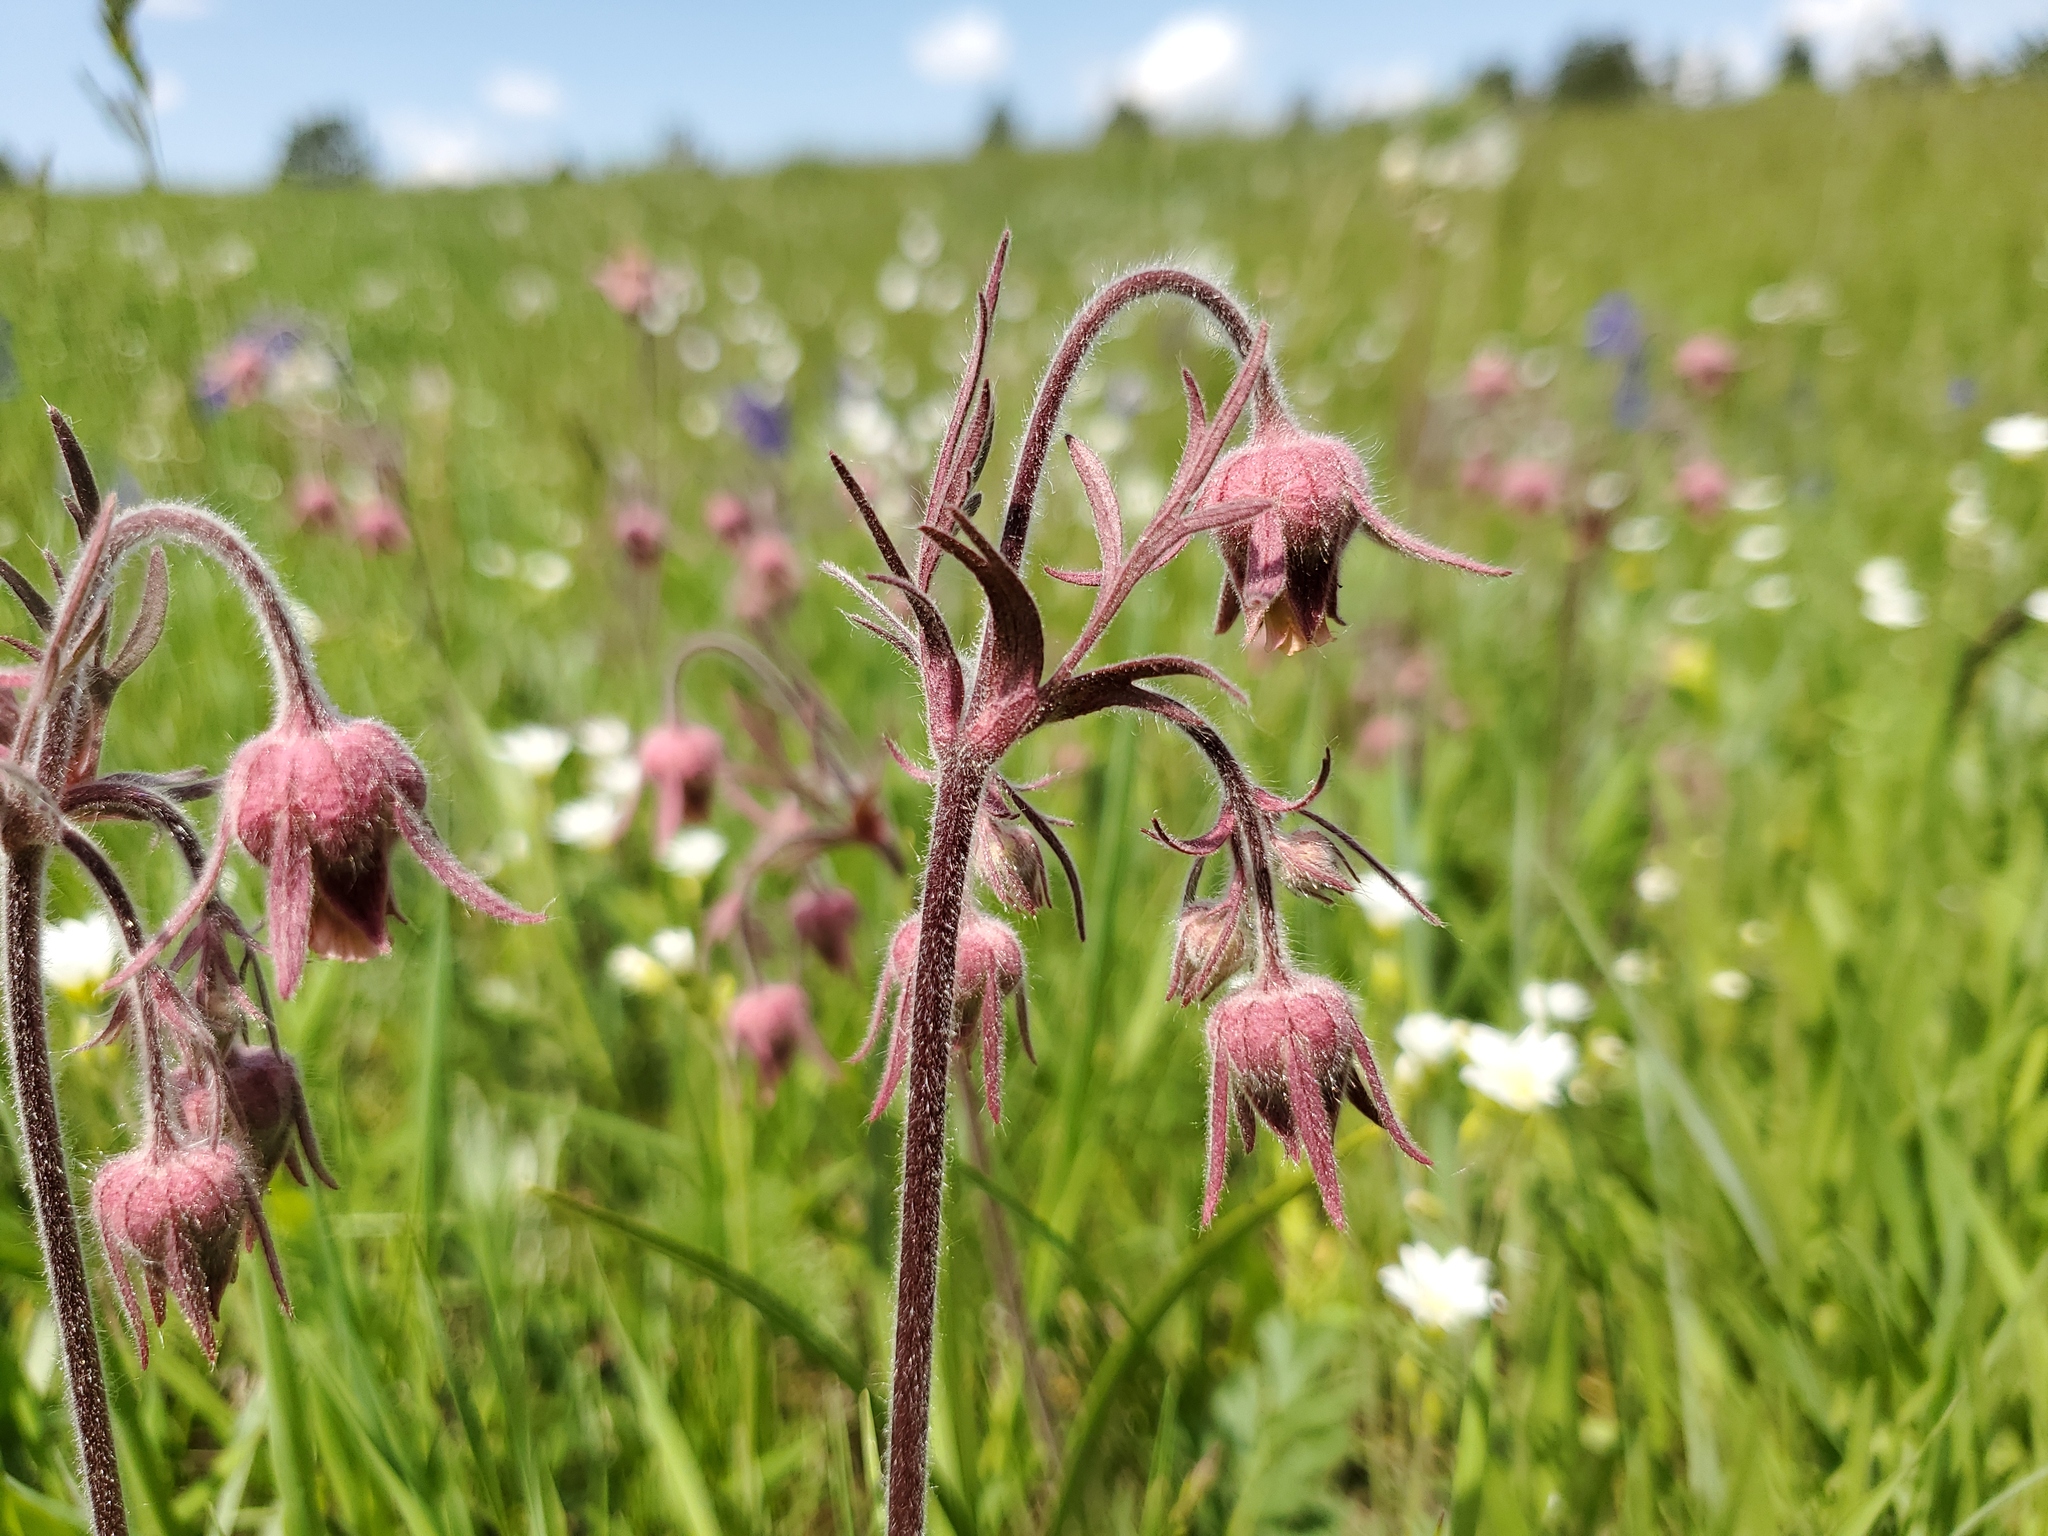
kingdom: Plantae
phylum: Tracheophyta
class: Magnoliopsida
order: Rosales
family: Rosaceae
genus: Geum
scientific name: Geum triflorum
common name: Old man's whiskers
